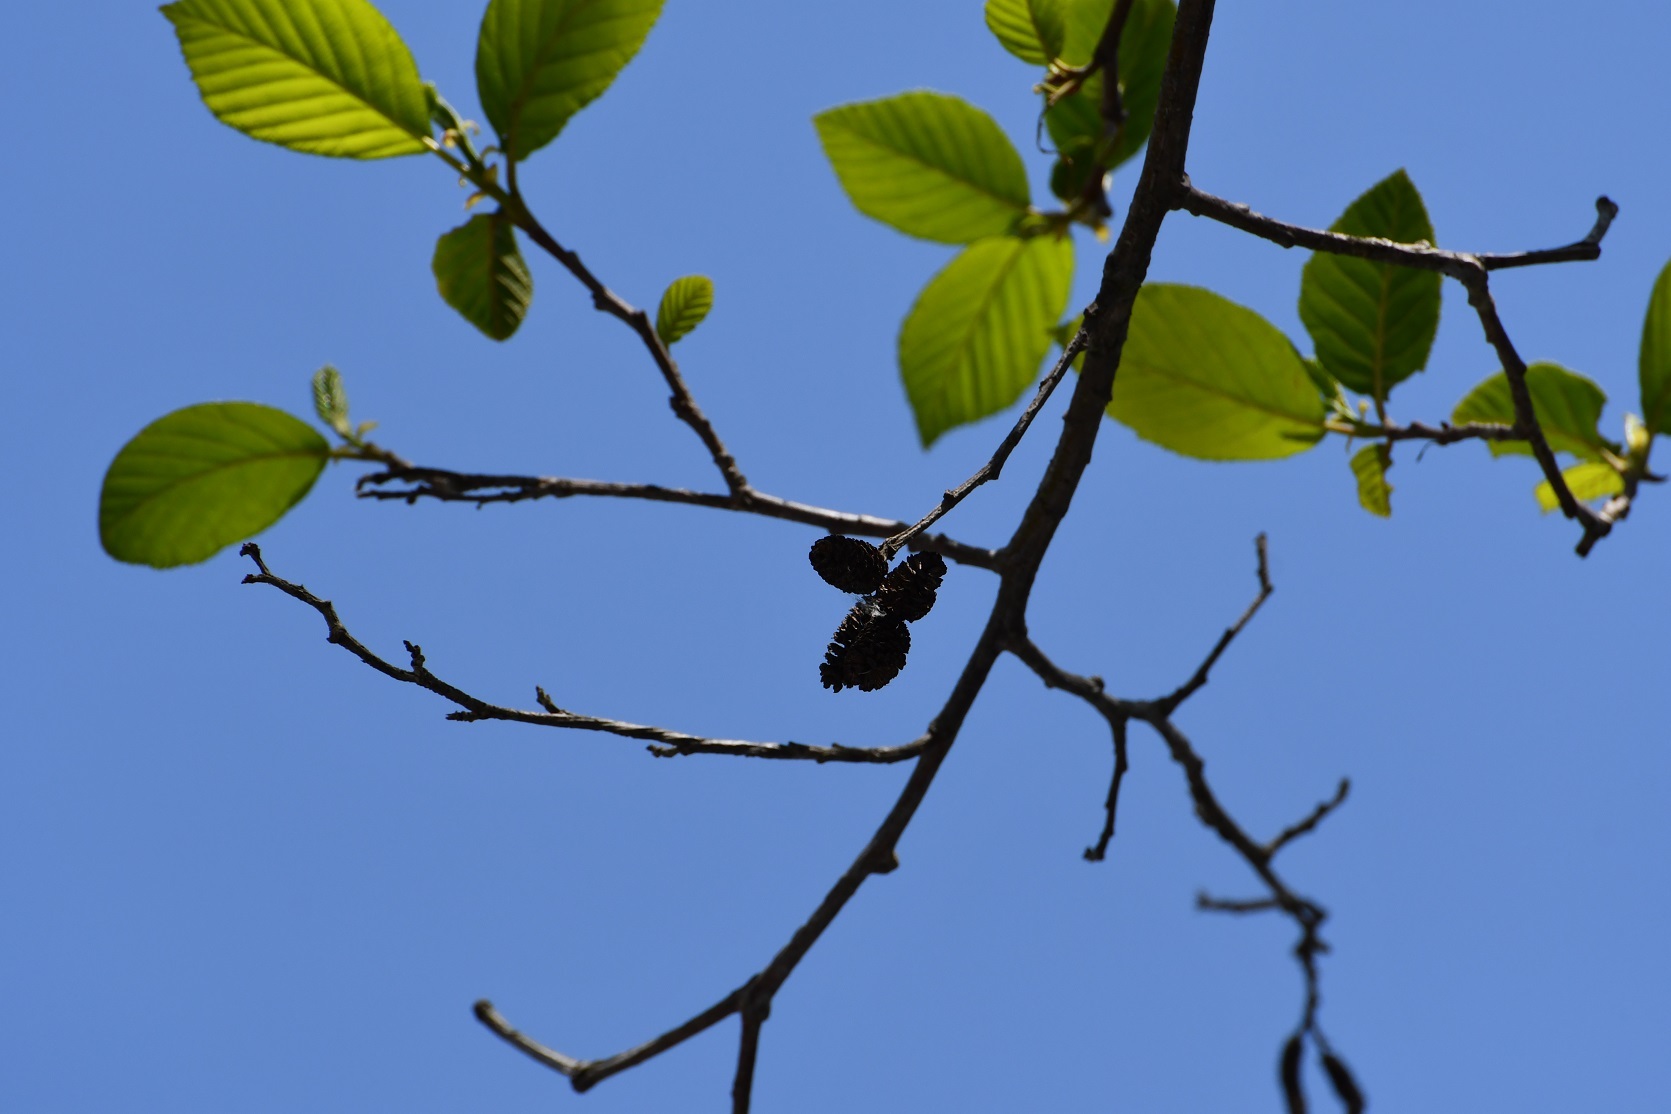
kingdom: Plantae
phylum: Tracheophyta
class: Magnoliopsida
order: Fagales
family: Betulaceae
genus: Alnus
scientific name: Alnus acuminata
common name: Alder
